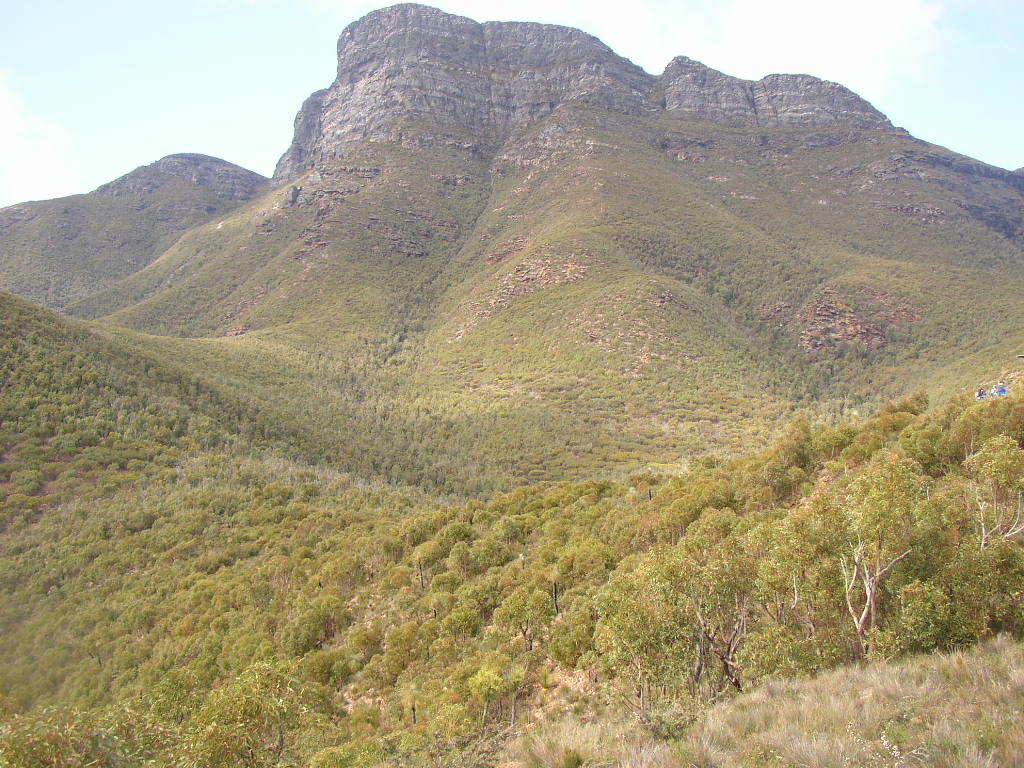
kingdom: Plantae
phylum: Tracheophyta
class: Magnoliopsida
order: Santalales
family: Loranthaceae
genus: Nuytsia
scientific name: Nuytsia floribunda
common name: Western australian christmastree
